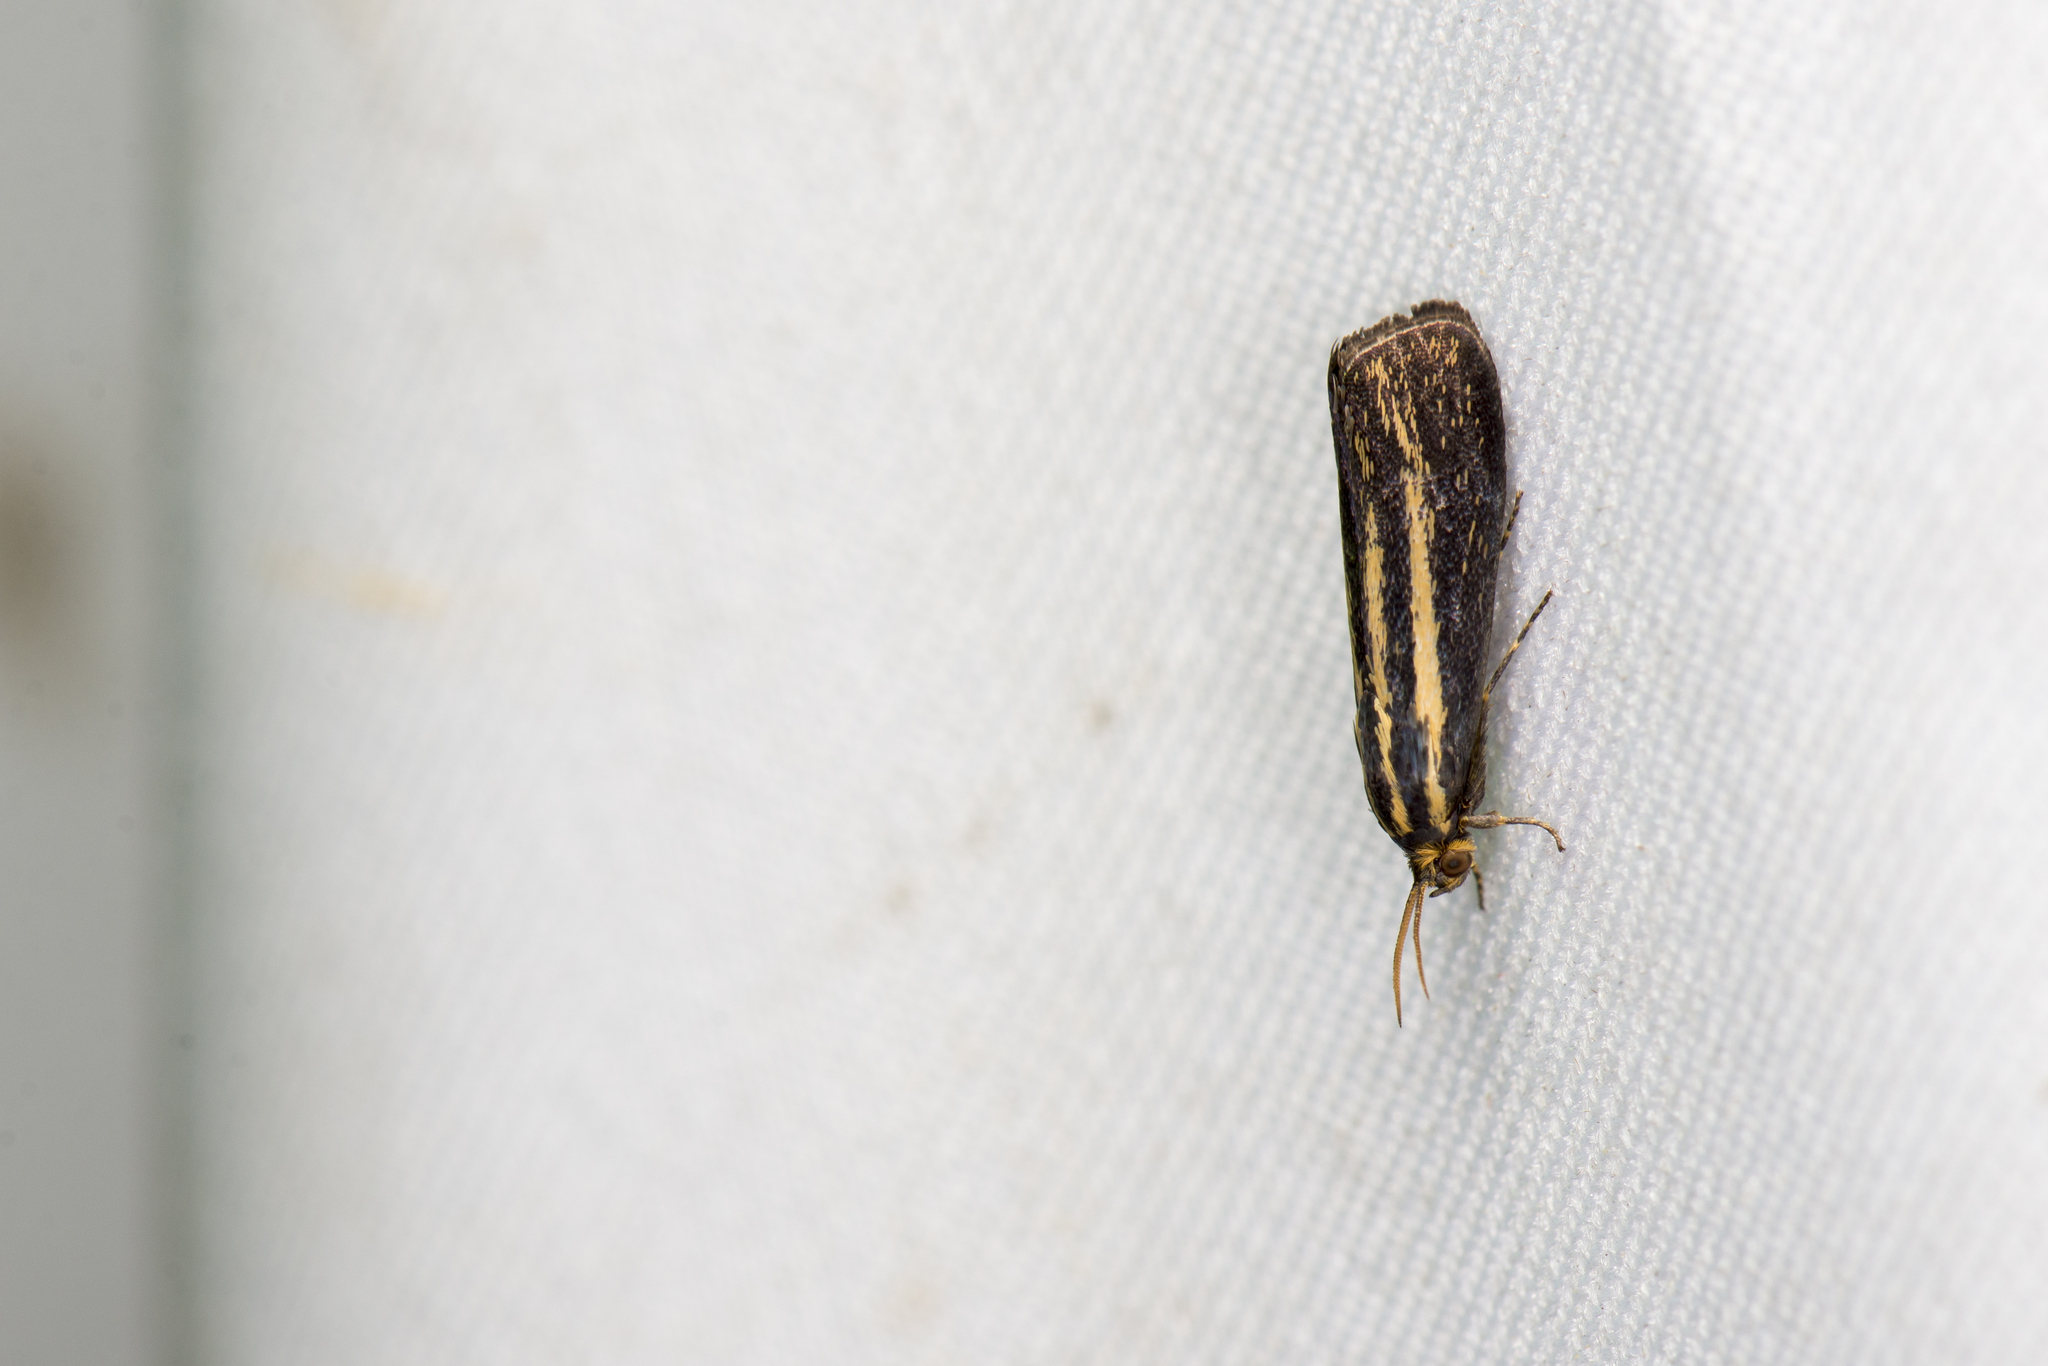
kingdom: Animalia
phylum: Arthropoda
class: Insecta
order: Lepidoptera
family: Brachodidae
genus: Saccocera
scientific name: Saccocera sauteri
